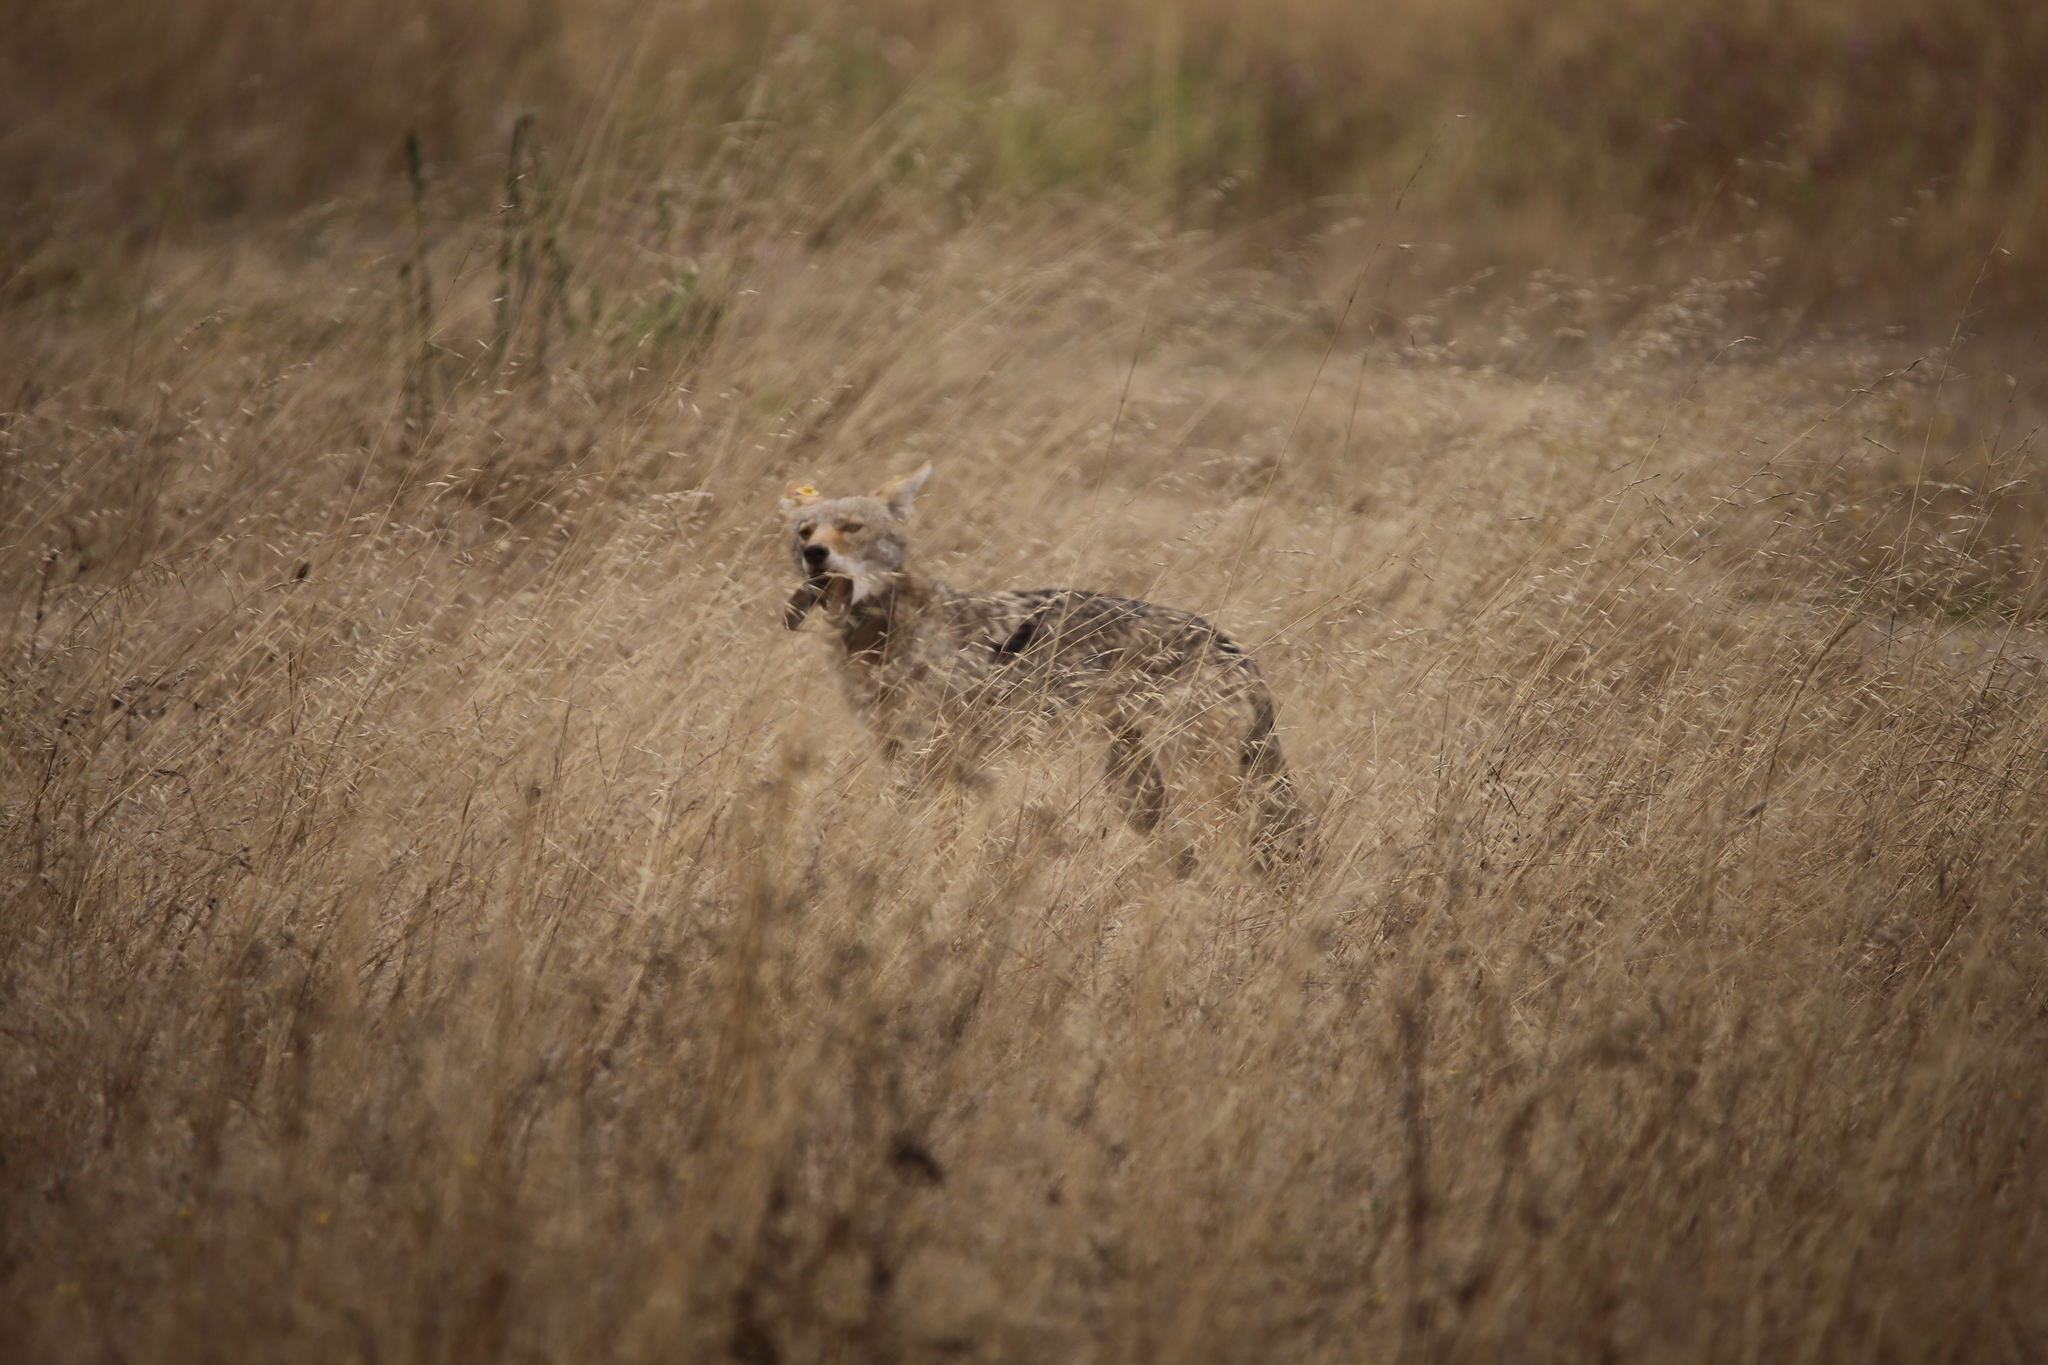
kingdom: Animalia
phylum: Chordata
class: Mammalia
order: Carnivora
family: Canidae
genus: Canis
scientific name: Canis latrans
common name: Coyote
